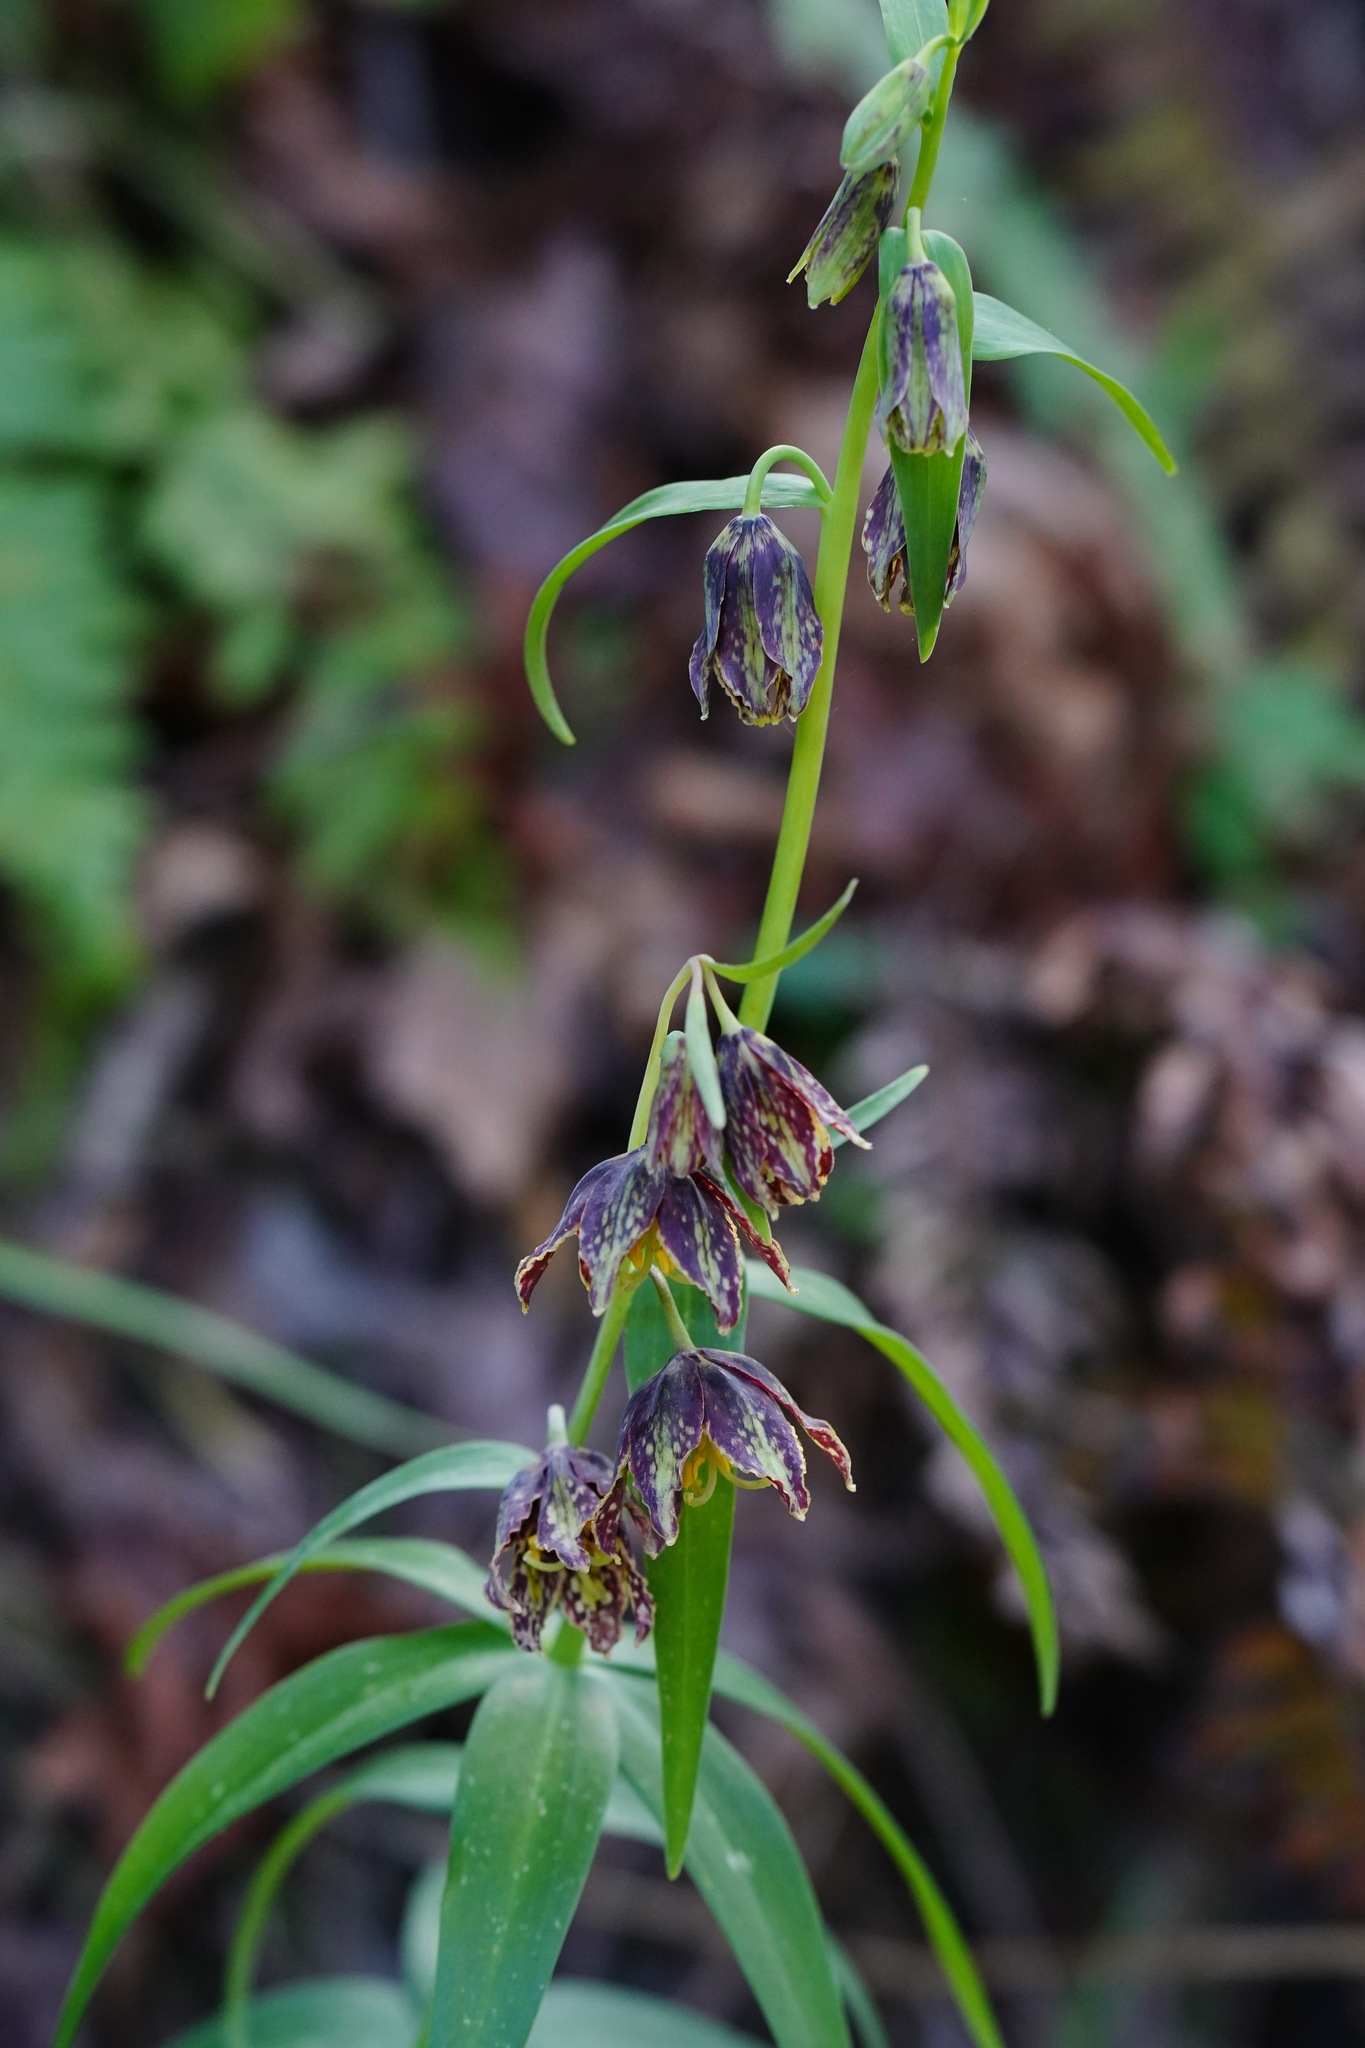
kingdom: Plantae
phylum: Tracheophyta
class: Liliopsida
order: Liliales
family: Liliaceae
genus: Fritillaria
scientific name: Fritillaria affinis
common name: Ojai fritillary
